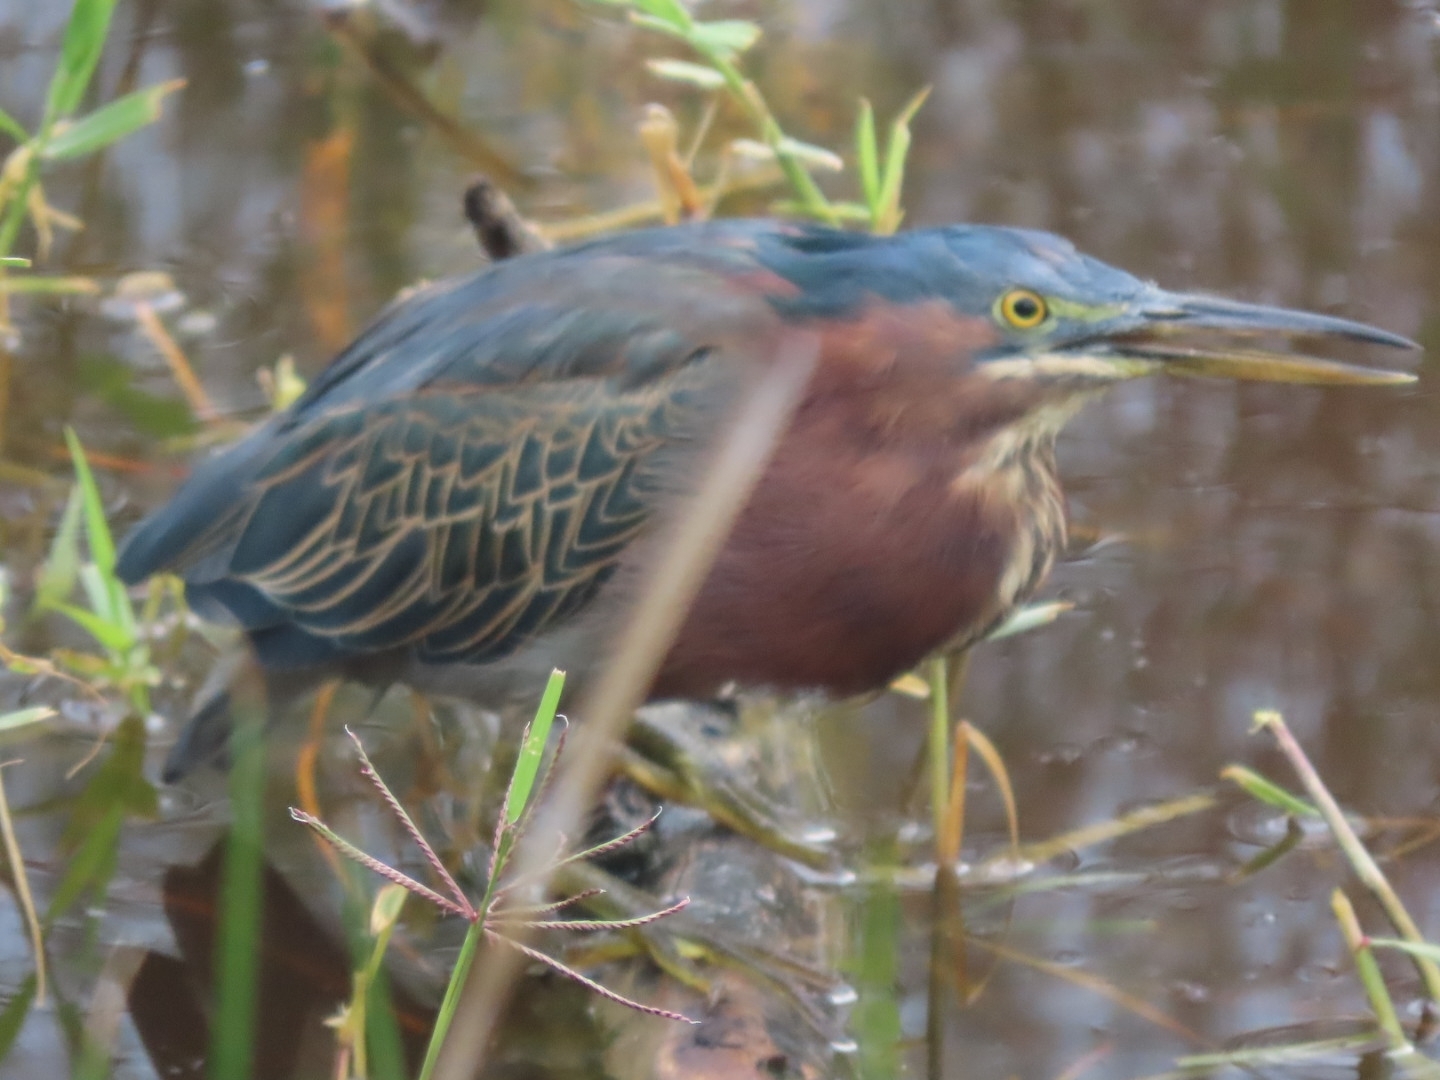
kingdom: Animalia
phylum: Chordata
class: Aves
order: Pelecaniformes
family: Ardeidae
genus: Butorides
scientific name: Butorides virescens
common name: Green heron
